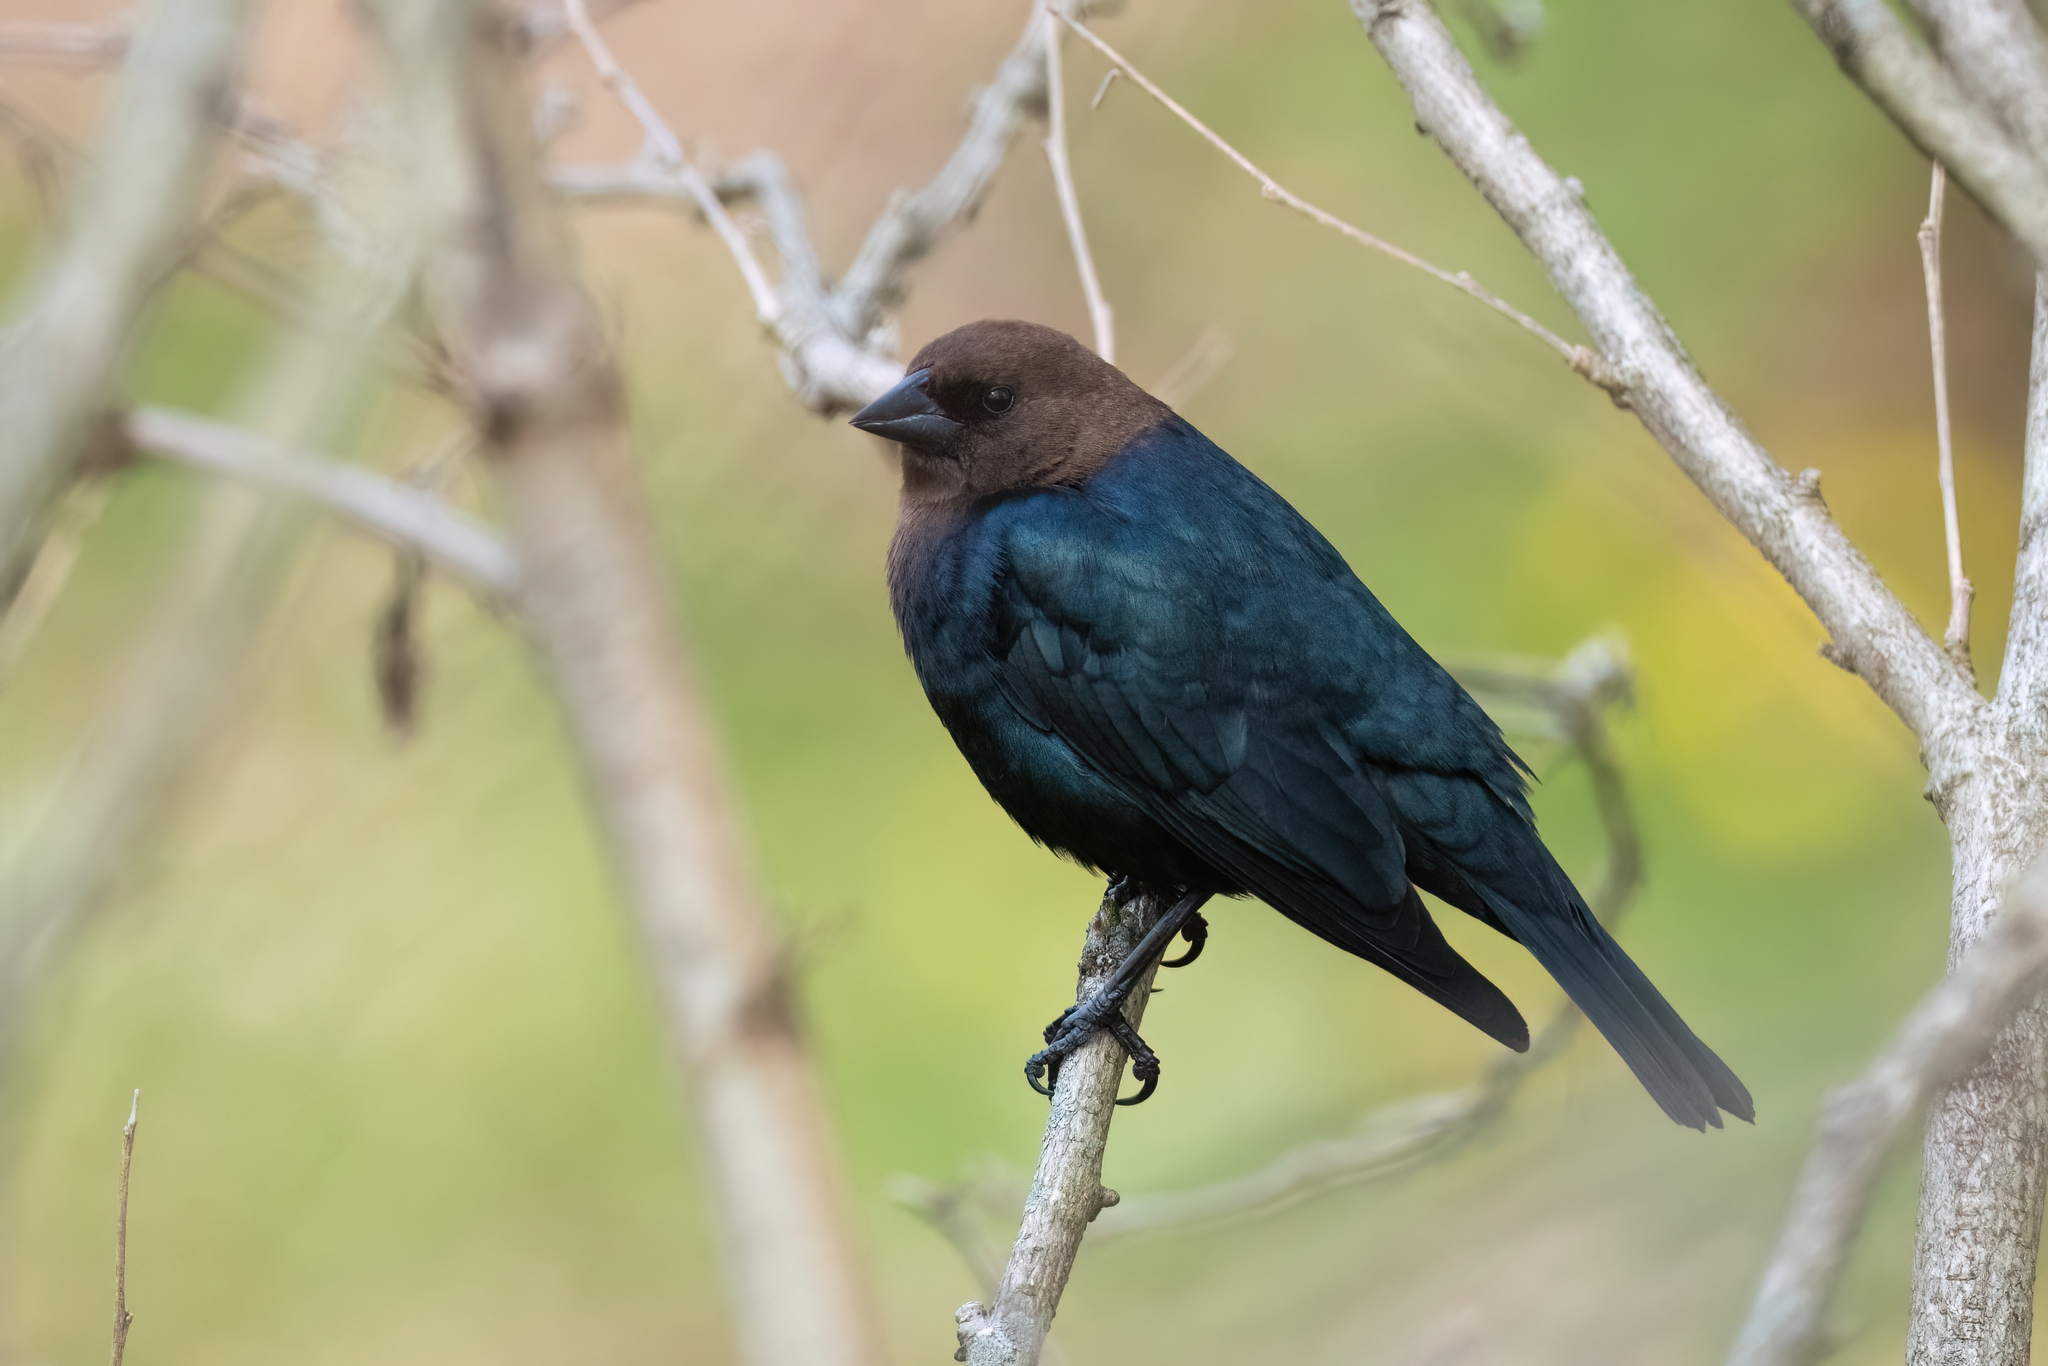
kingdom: Animalia
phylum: Chordata
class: Aves
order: Passeriformes
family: Icteridae
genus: Molothrus
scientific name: Molothrus ater
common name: Brown-headed cowbird
